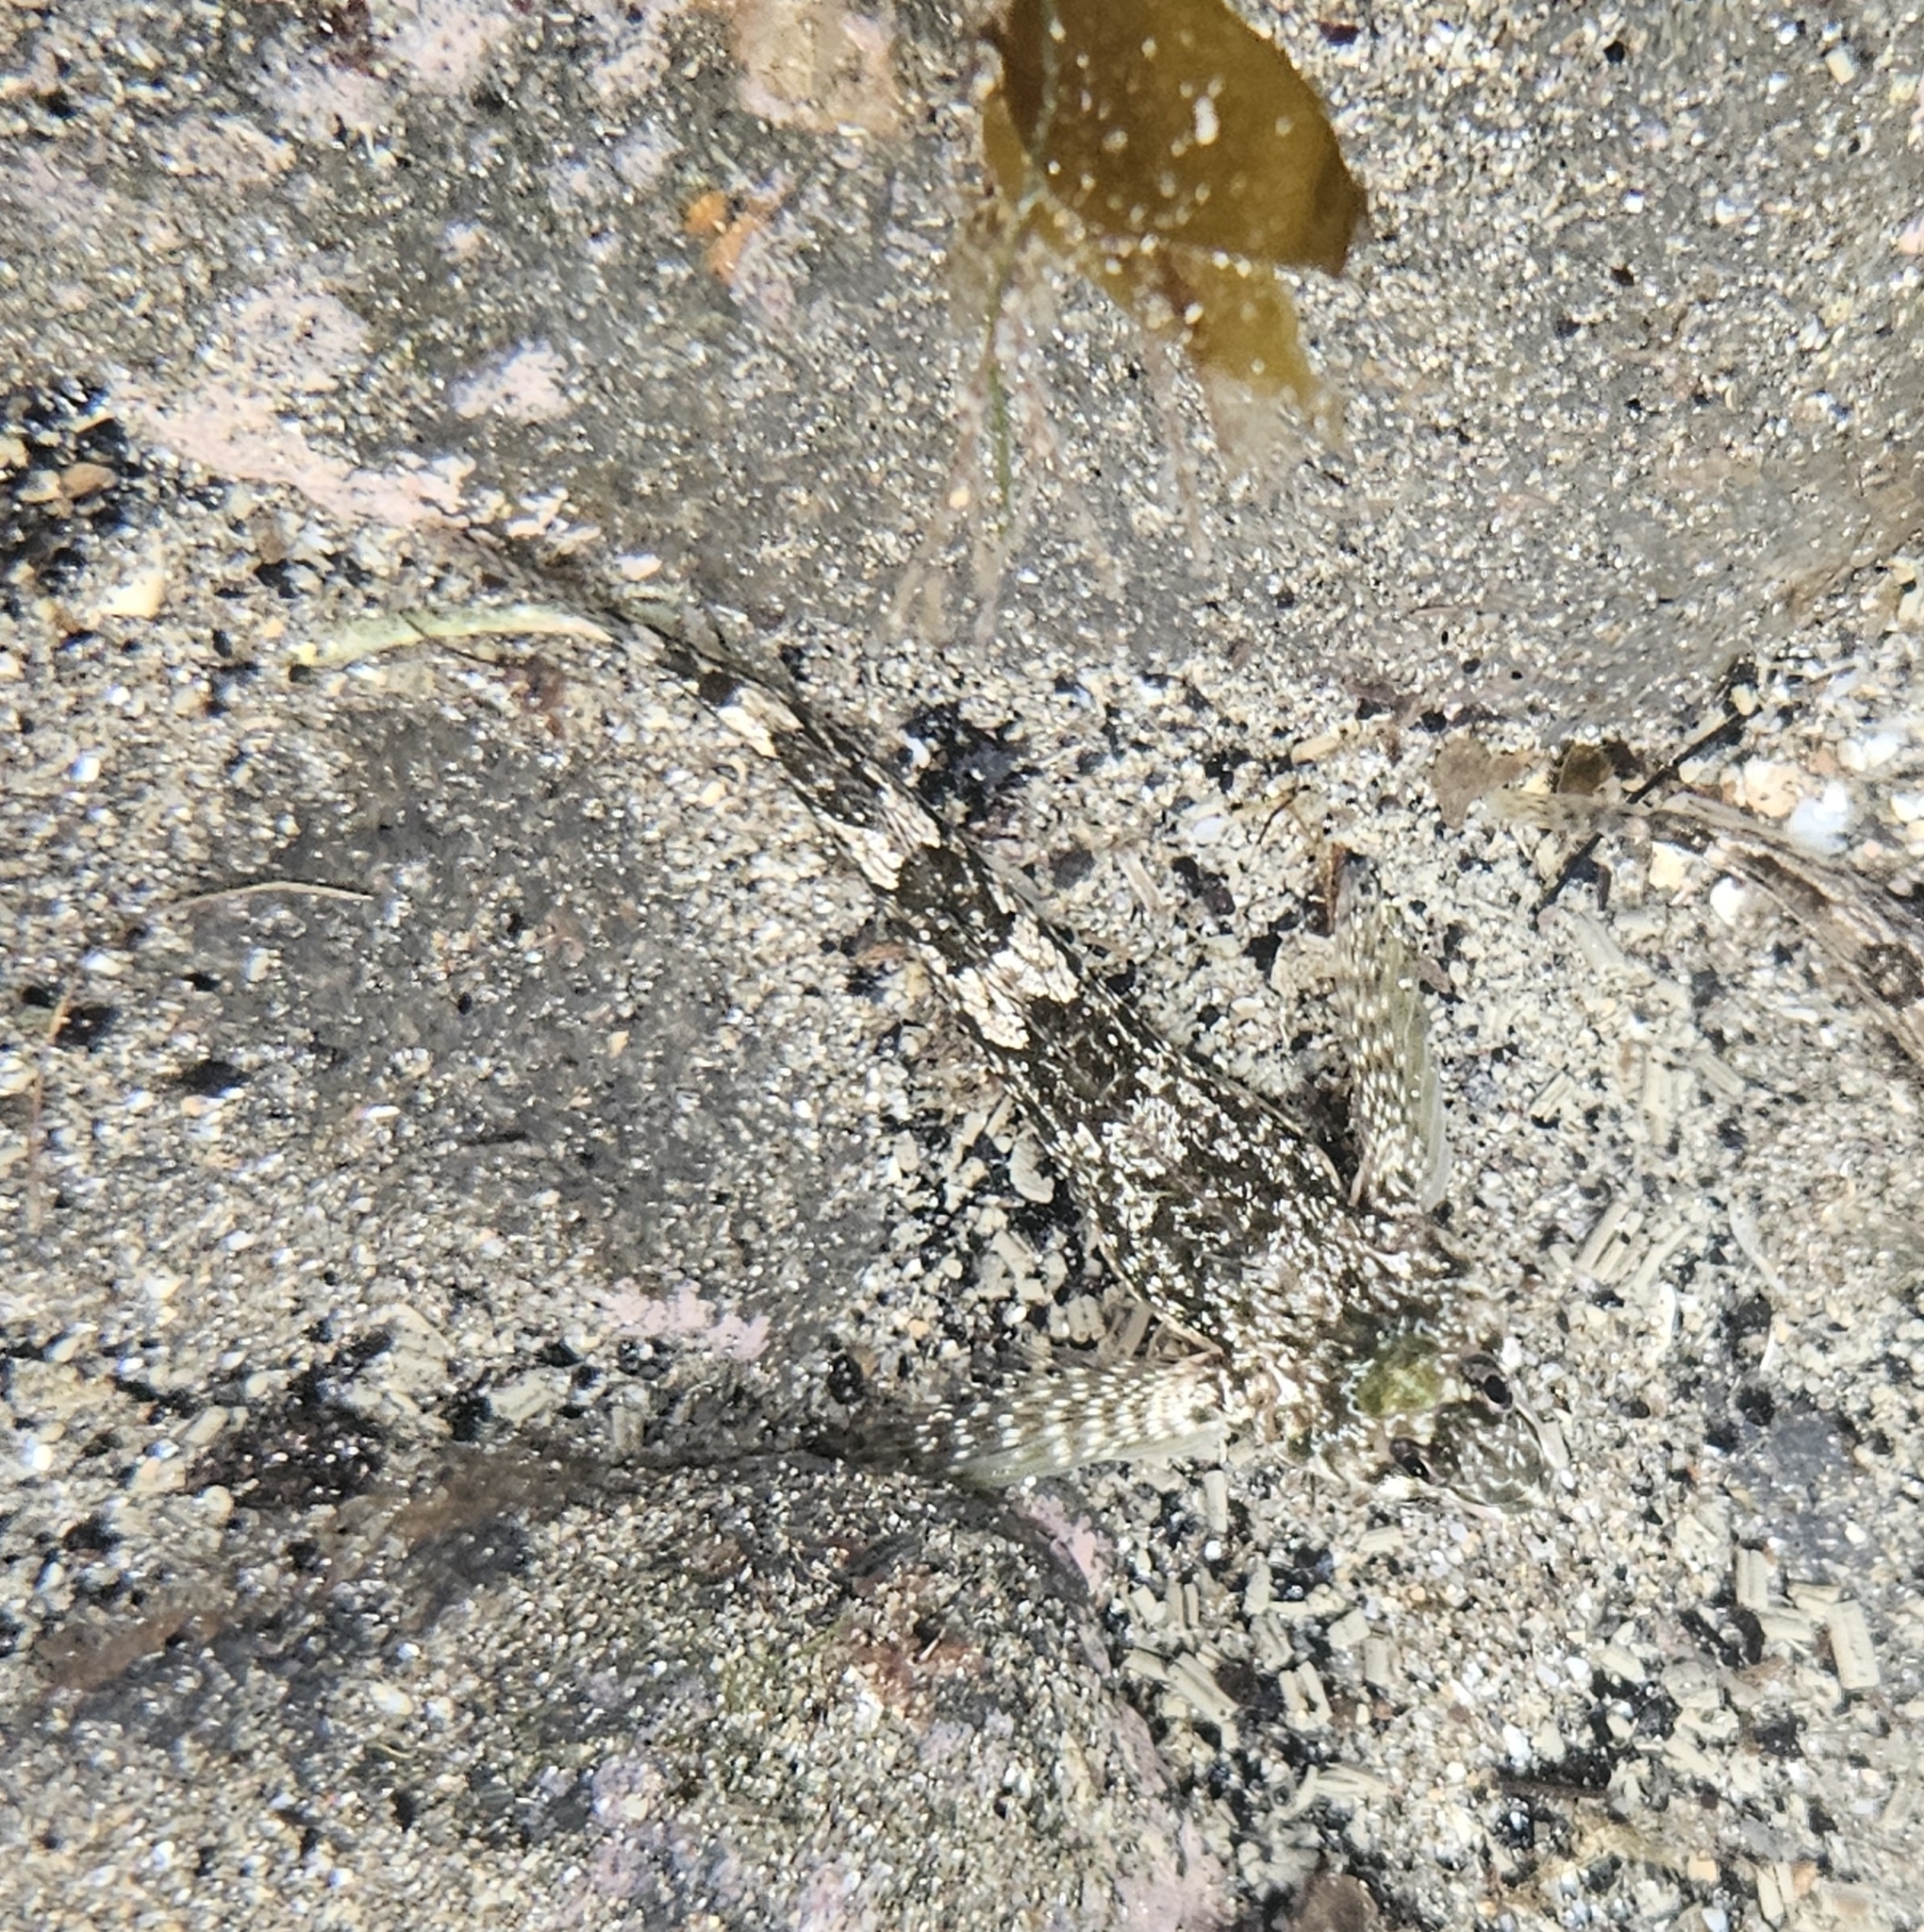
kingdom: Animalia
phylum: Chordata
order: Perciformes
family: Tripterygiidae
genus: Bellapiscis
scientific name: Bellapiscis medius
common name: Twister
